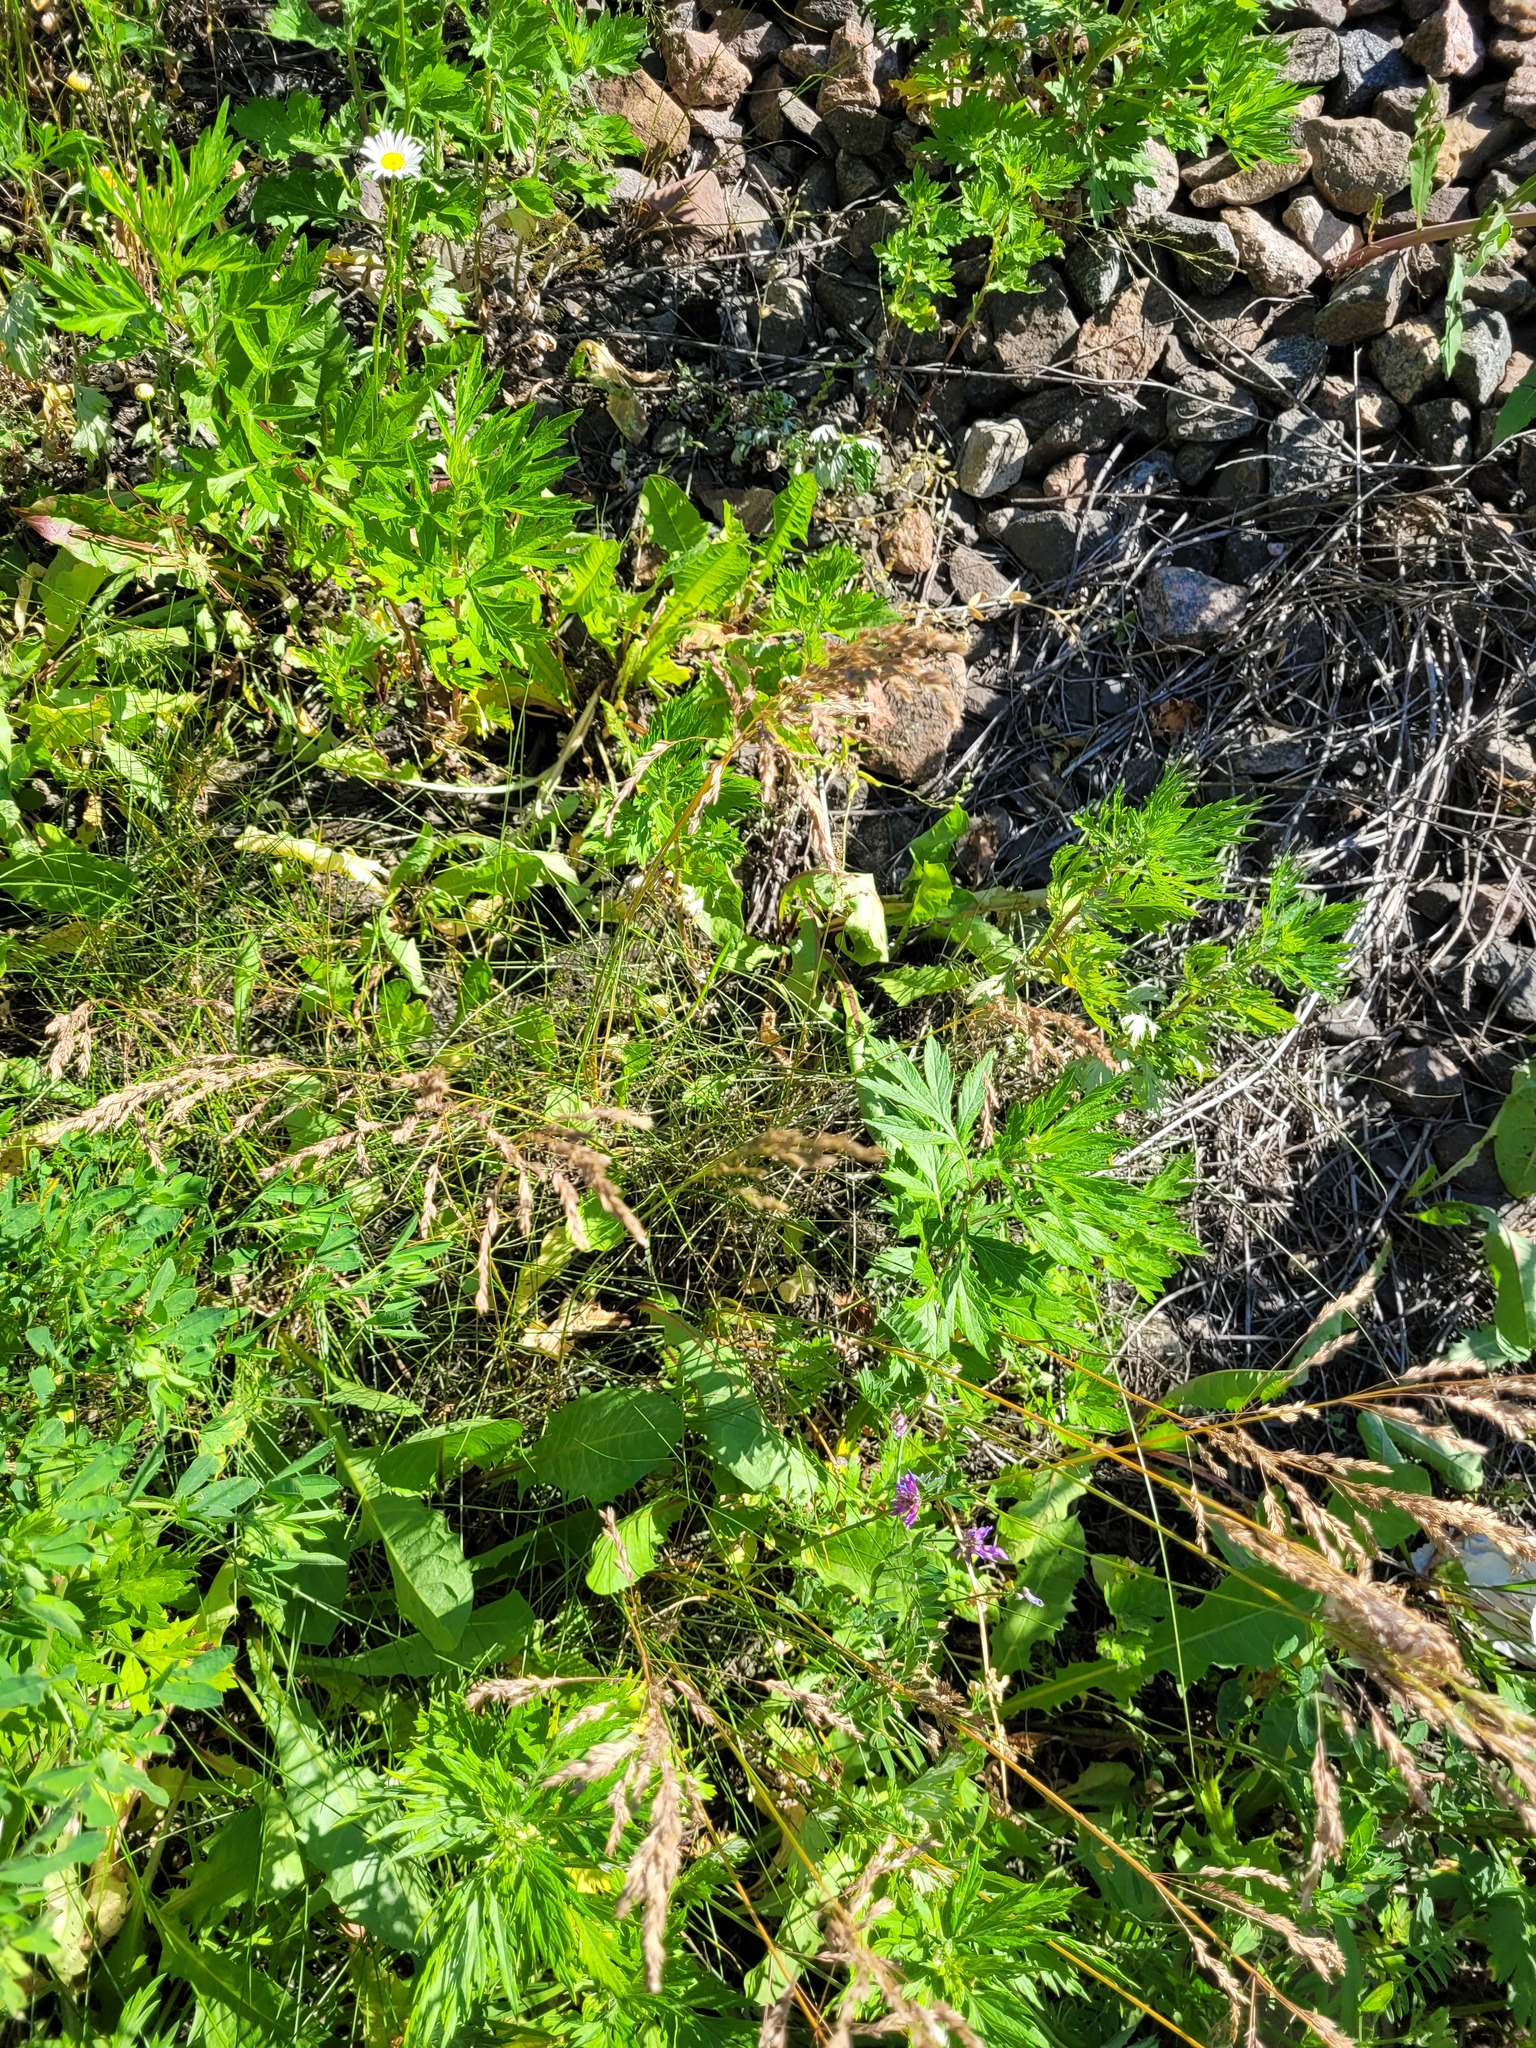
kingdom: Plantae
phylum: Tracheophyta
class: Liliopsida
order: Poales
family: Poaceae
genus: Poa
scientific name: Poa angustifolia
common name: Narrow-leaved meadow-grass
